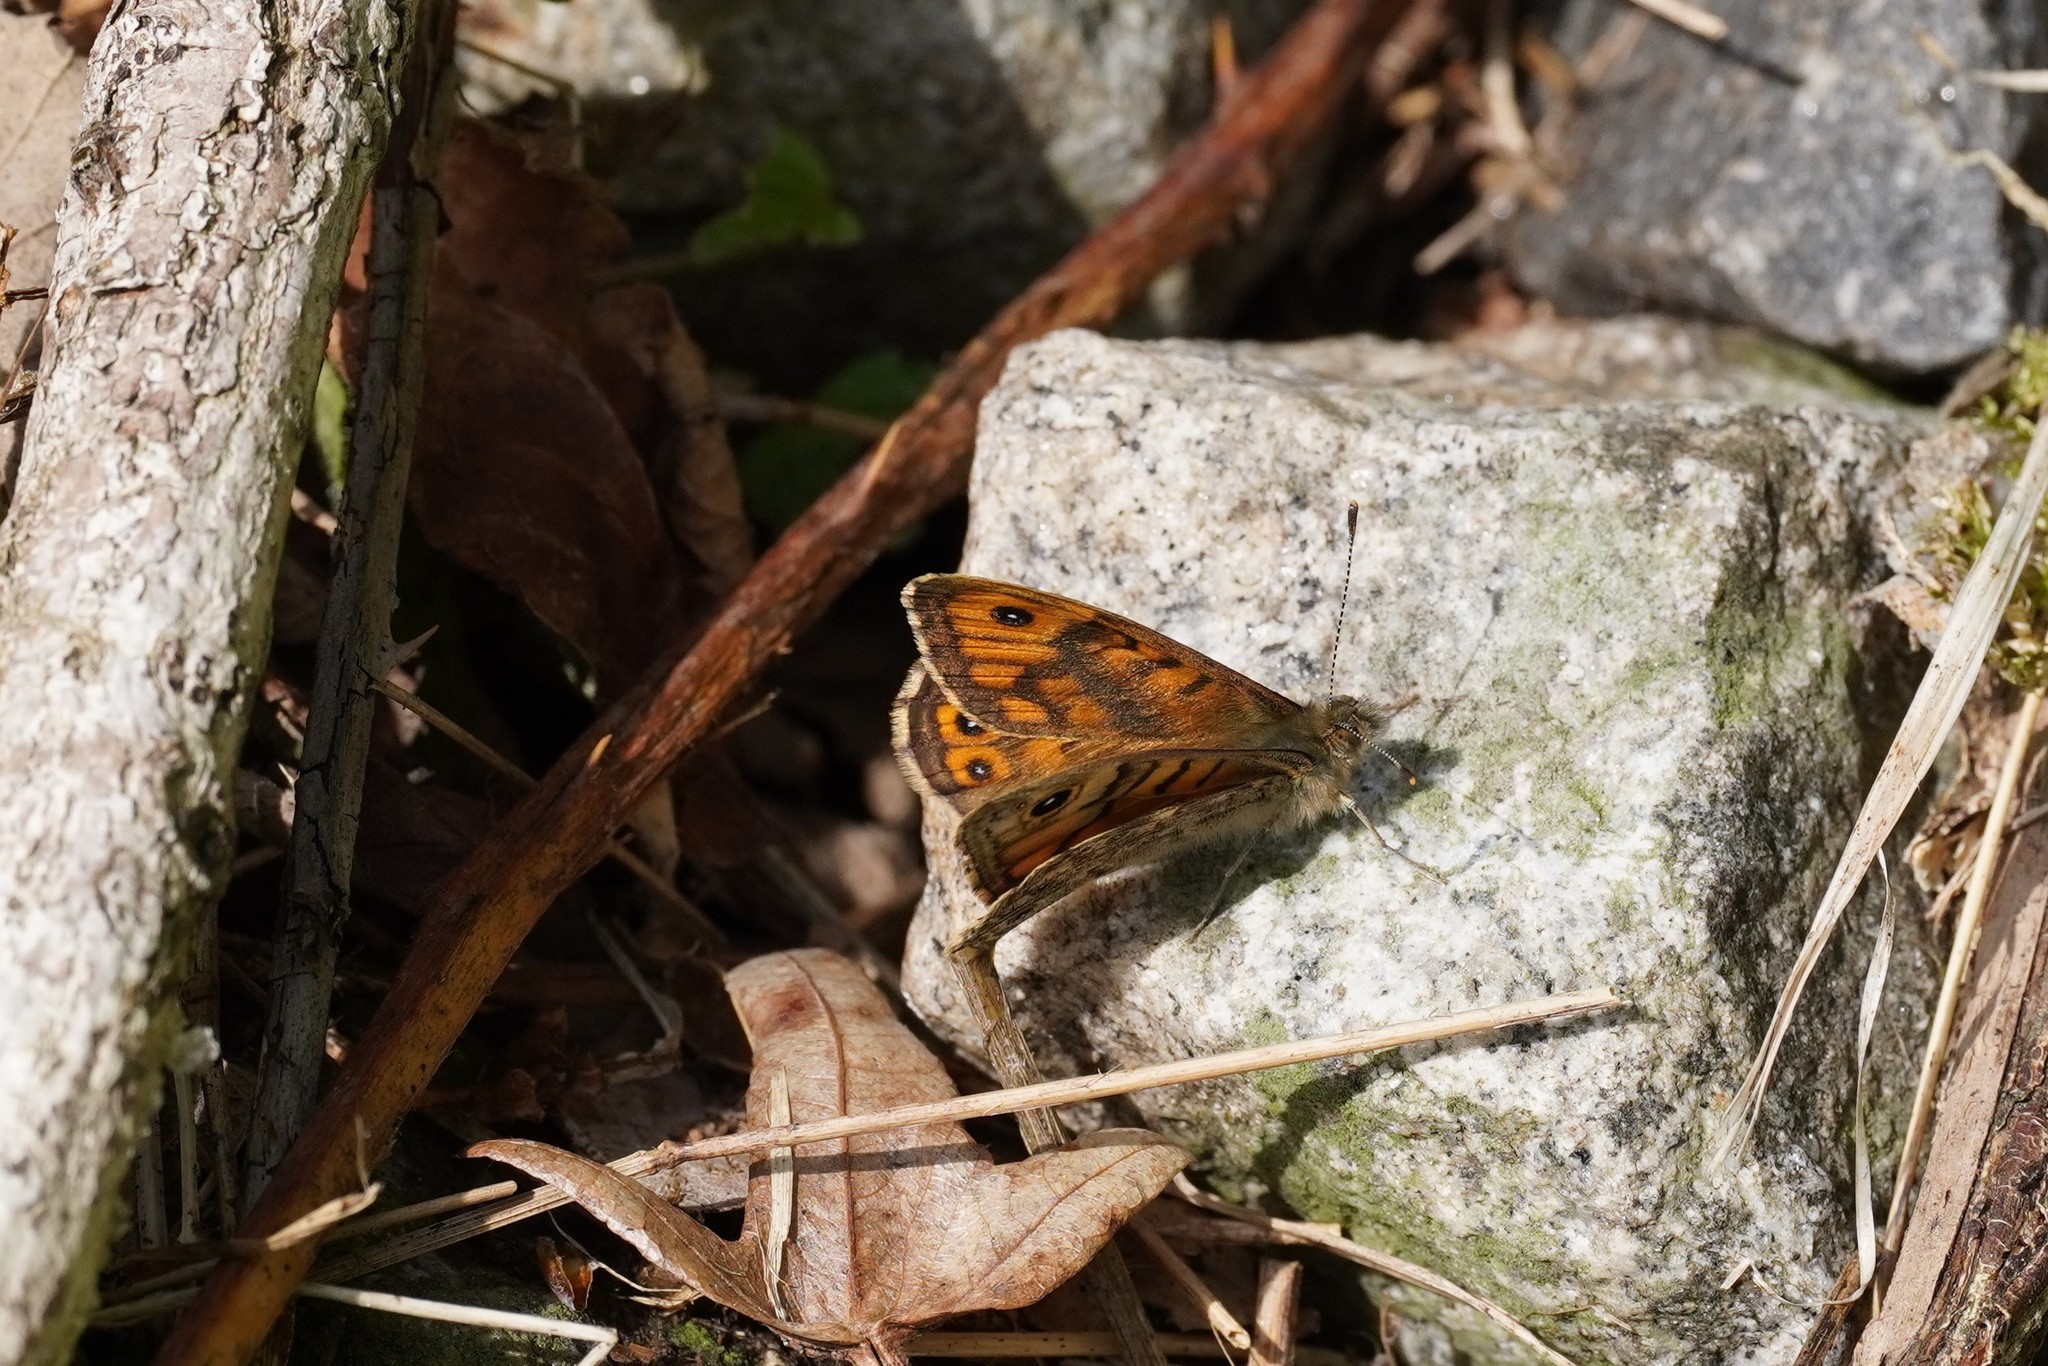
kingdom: Animalia
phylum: Arthropoda
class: Insecta
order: Lepidoptera
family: Nymphalidae
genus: Pararge
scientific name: Pararge Lasiommata megera
